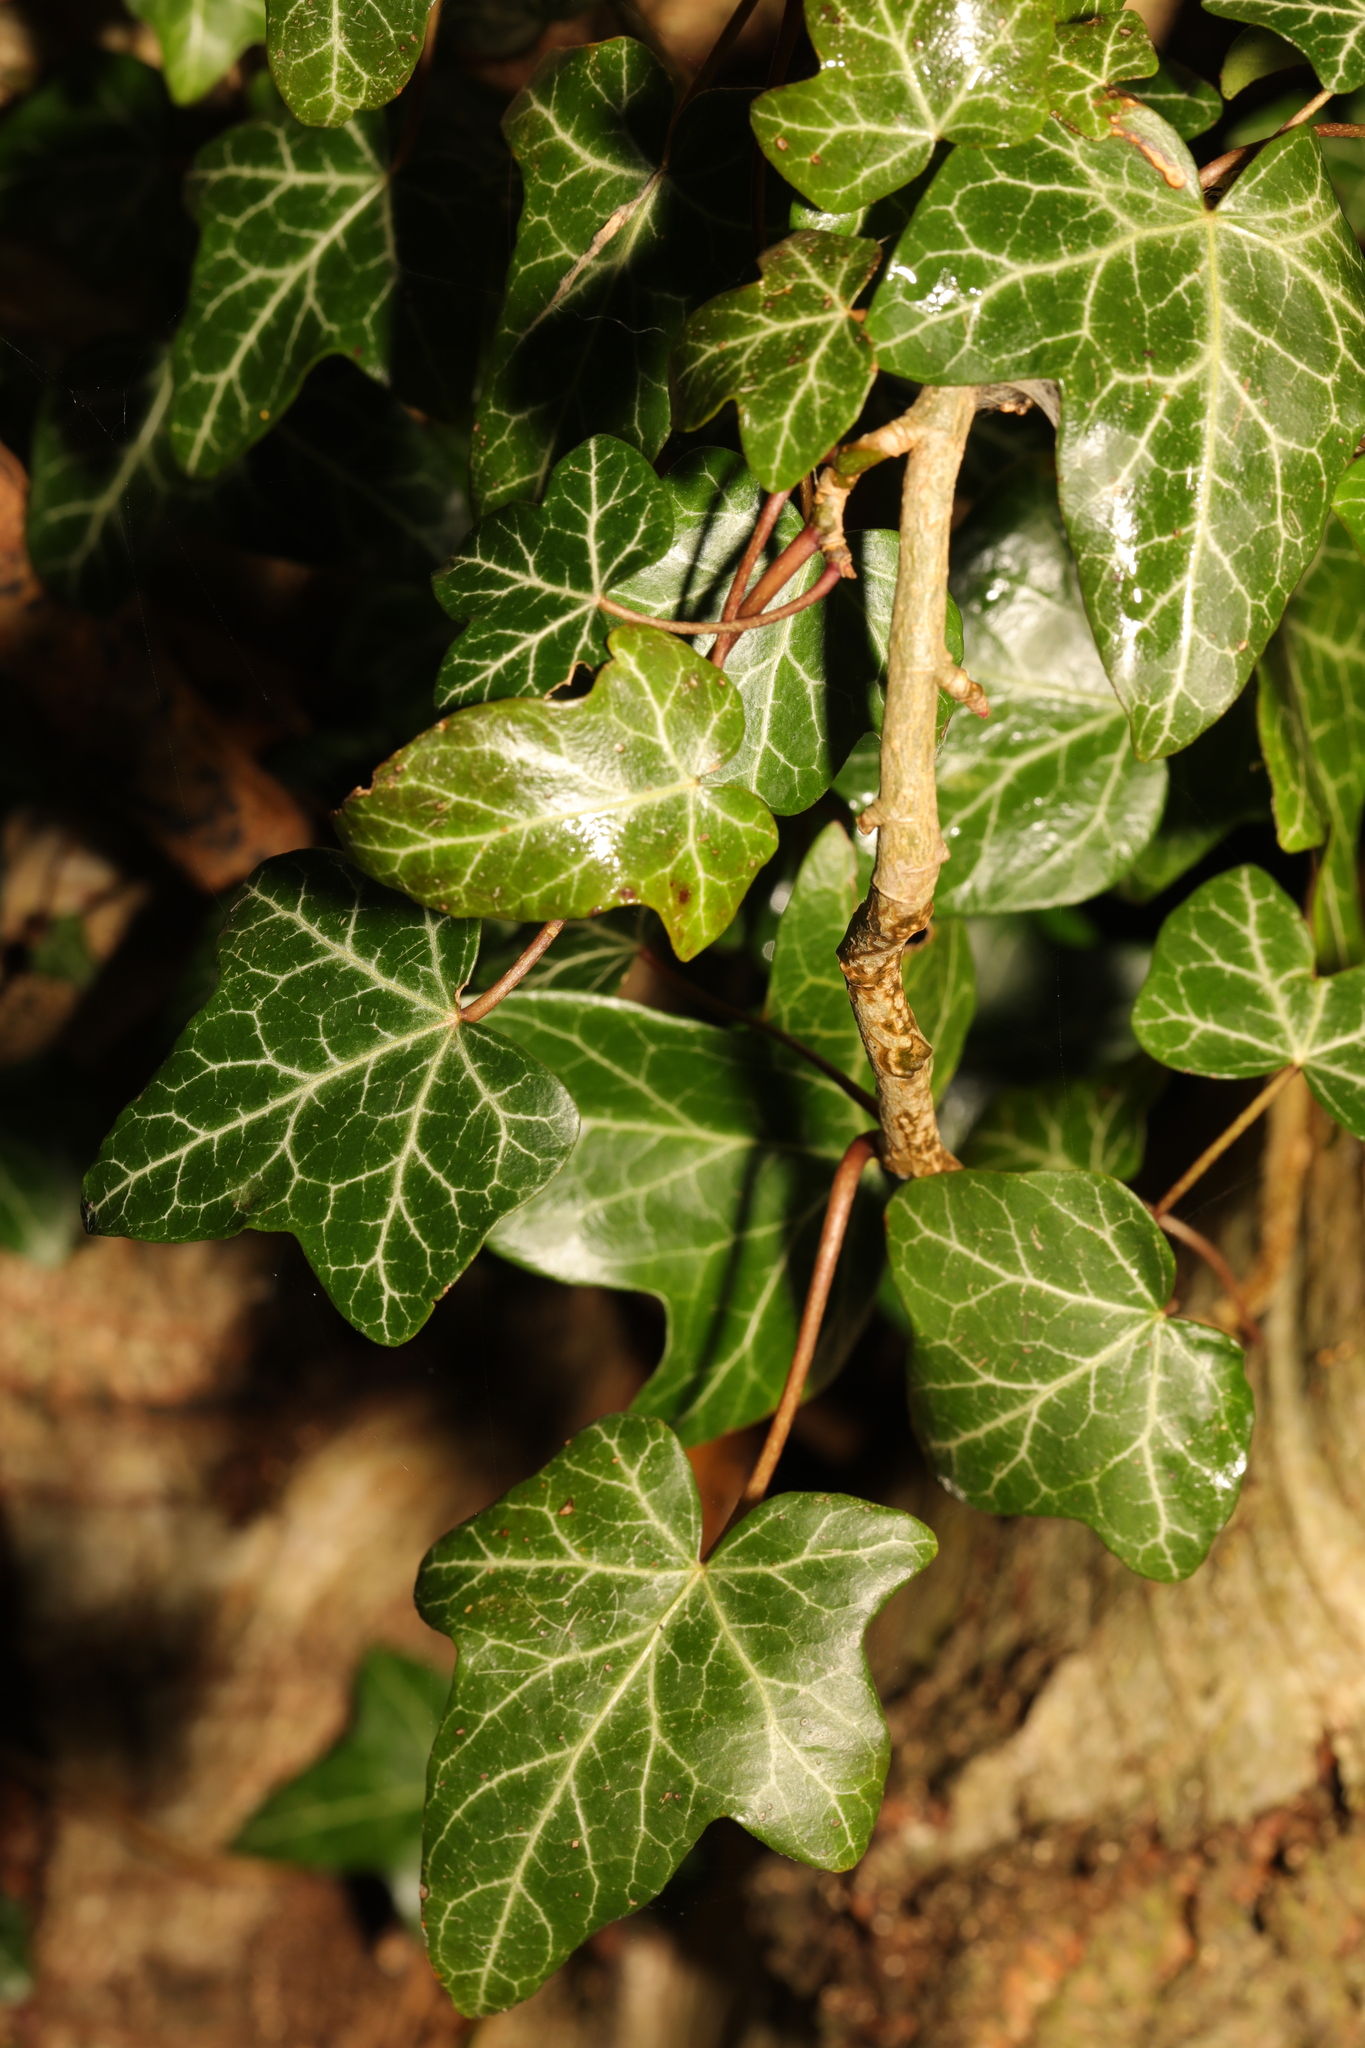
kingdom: Plantae
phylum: Tracheophyta
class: Magnoliopsida
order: Apiales
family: Araliaceae
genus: Hedera
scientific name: Hedera helix
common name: Ivy
